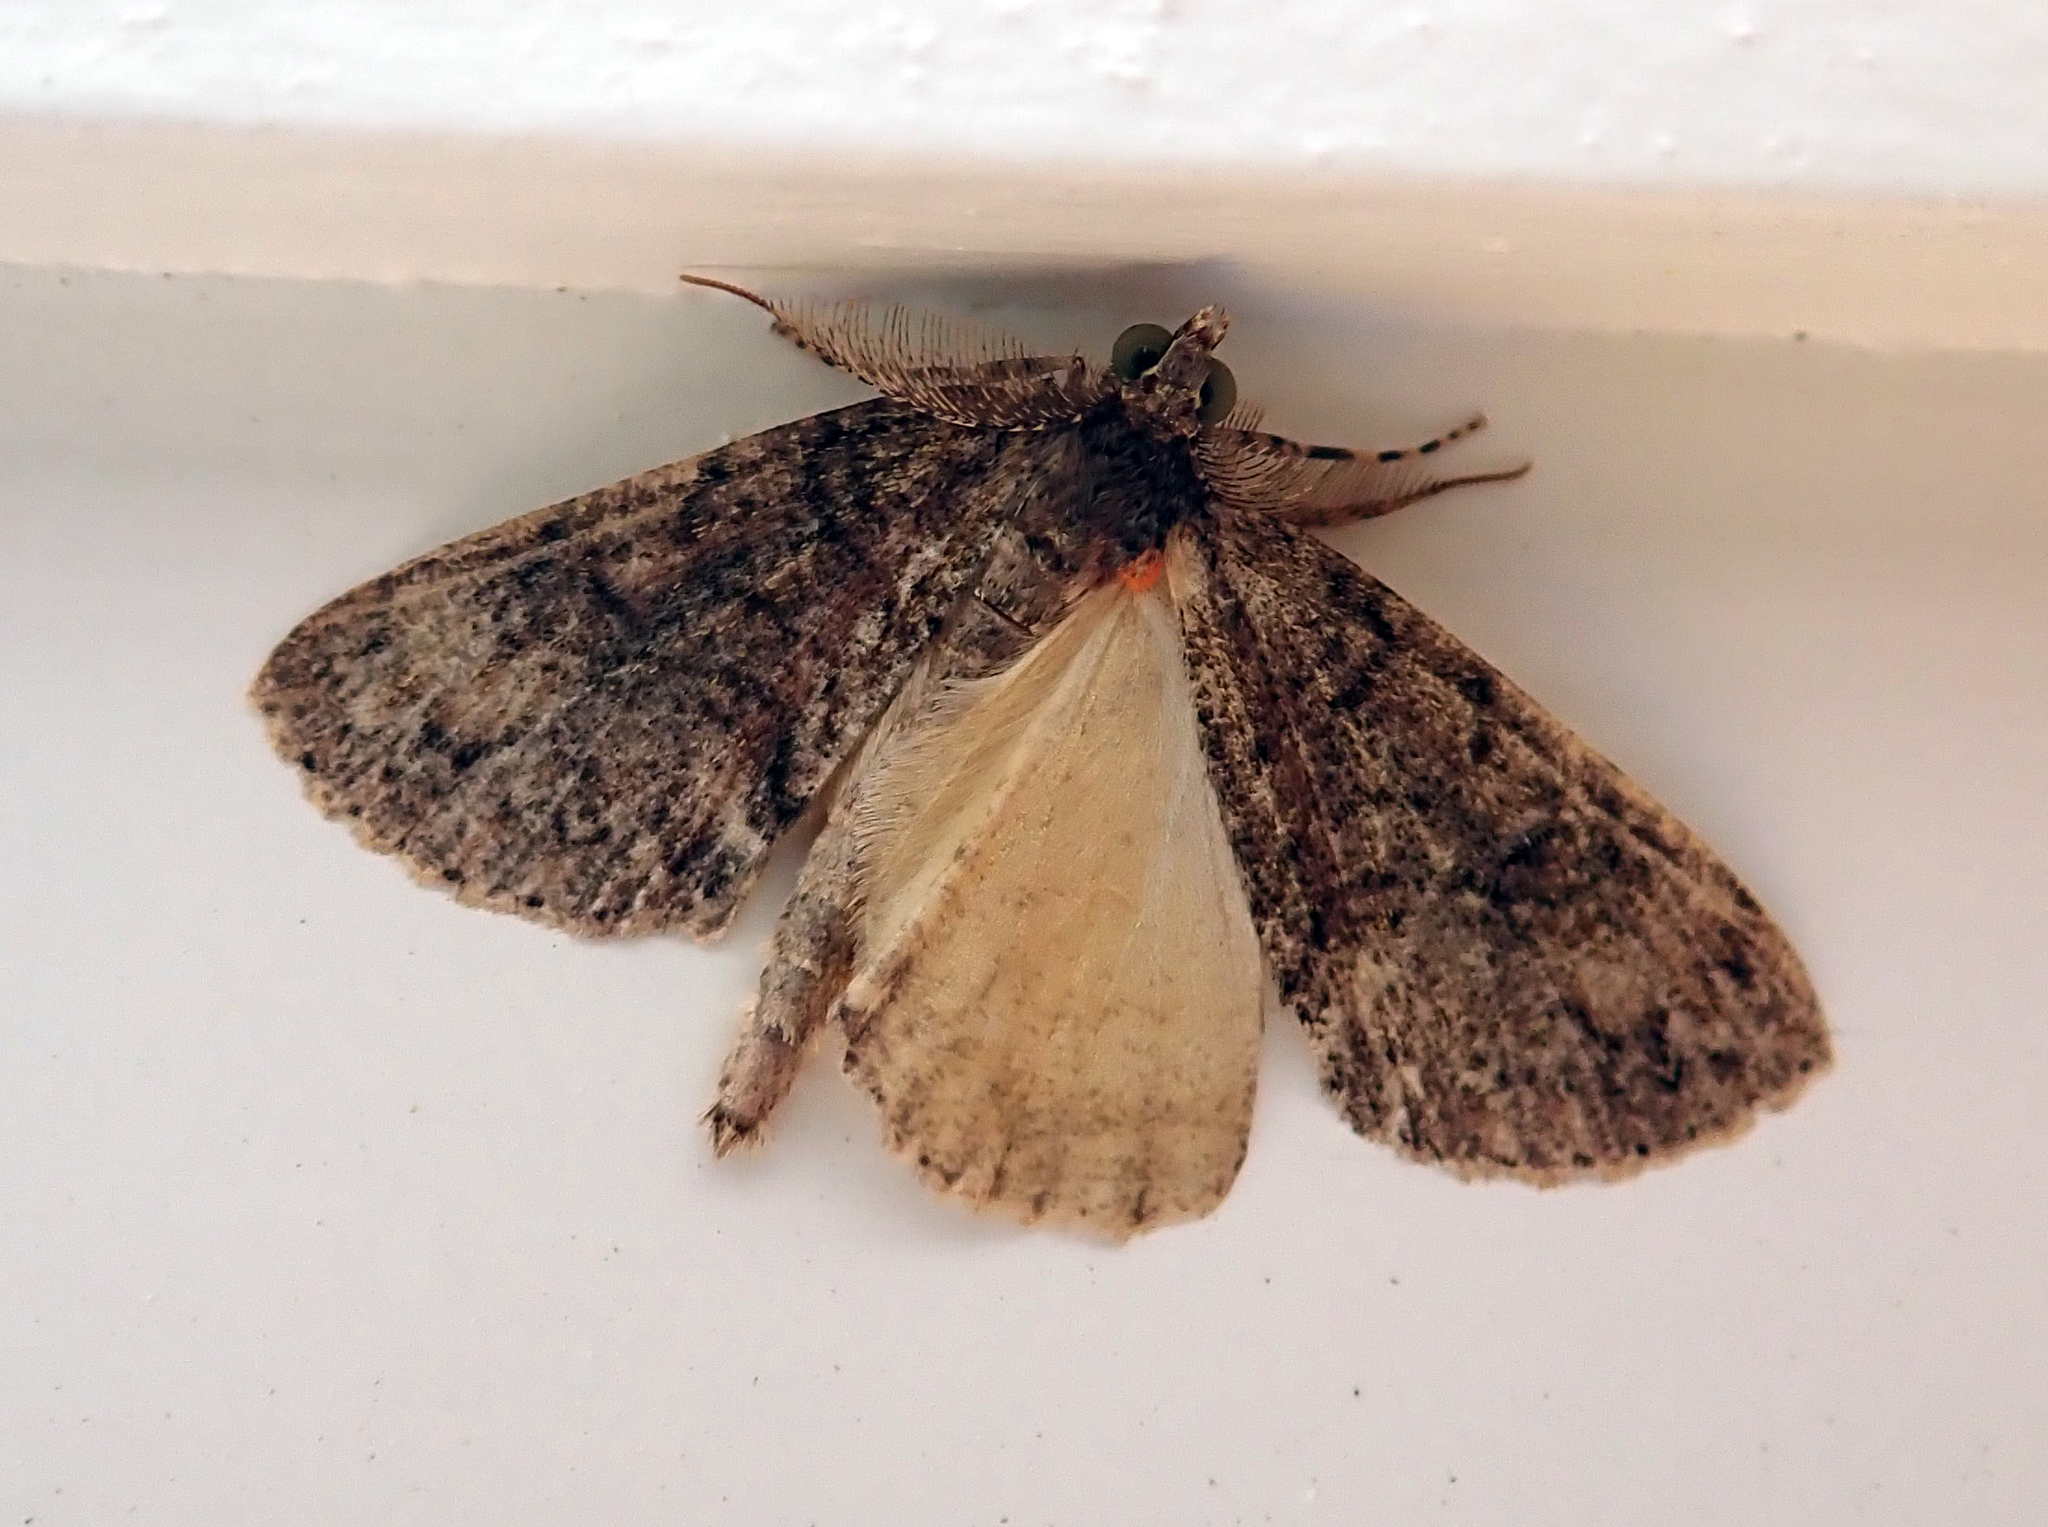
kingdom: Animalia
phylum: Arthropoda
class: Insecta
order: Lepidoptera
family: Geometridae
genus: Pseudocoremia
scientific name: Pseudocoremia suavis
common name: Common forest looper
